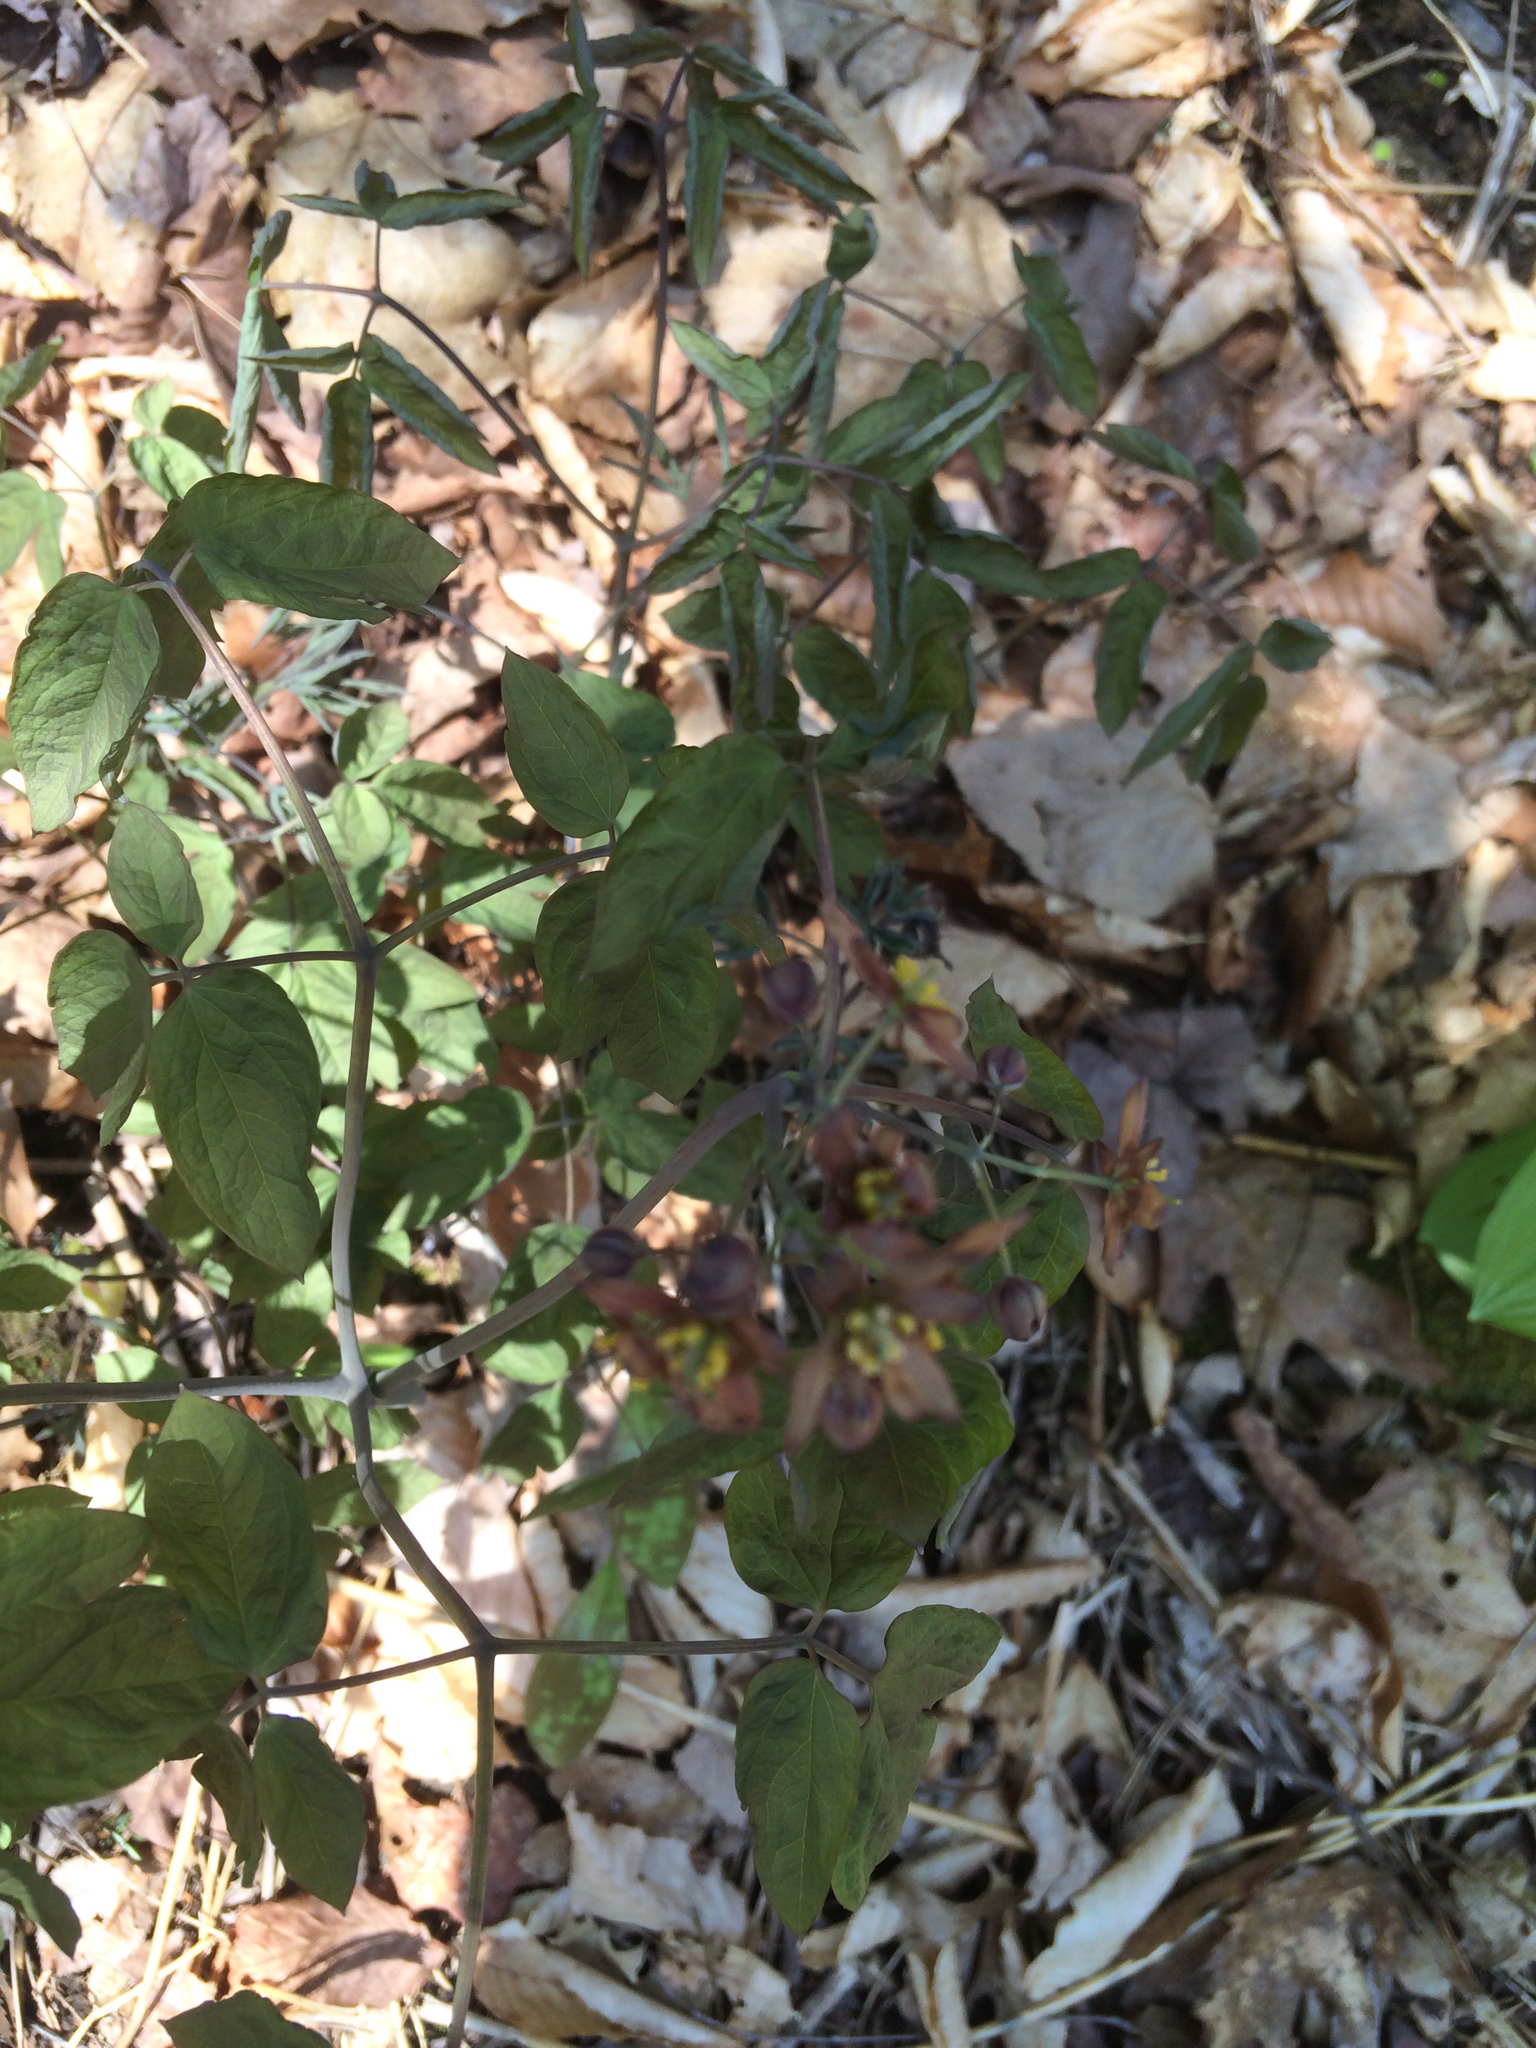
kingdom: Plantae
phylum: Tracheophyta
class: Magnoliopsida
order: Ranunculales
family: Berberidaceae
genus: Caulophyllum
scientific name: Caulophyllum giganteum
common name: Blue cohosh
